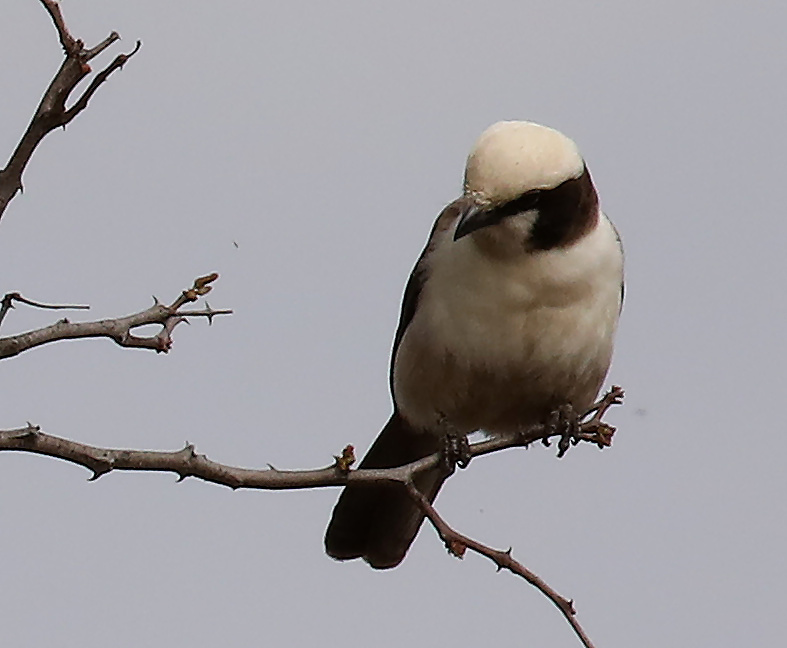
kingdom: Animalia
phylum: Chordata
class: Aves
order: Passeriformes
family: Laniidae
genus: Eurocephalus
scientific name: Eurocephalus anguitimens
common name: Southern white-crowned shrike
